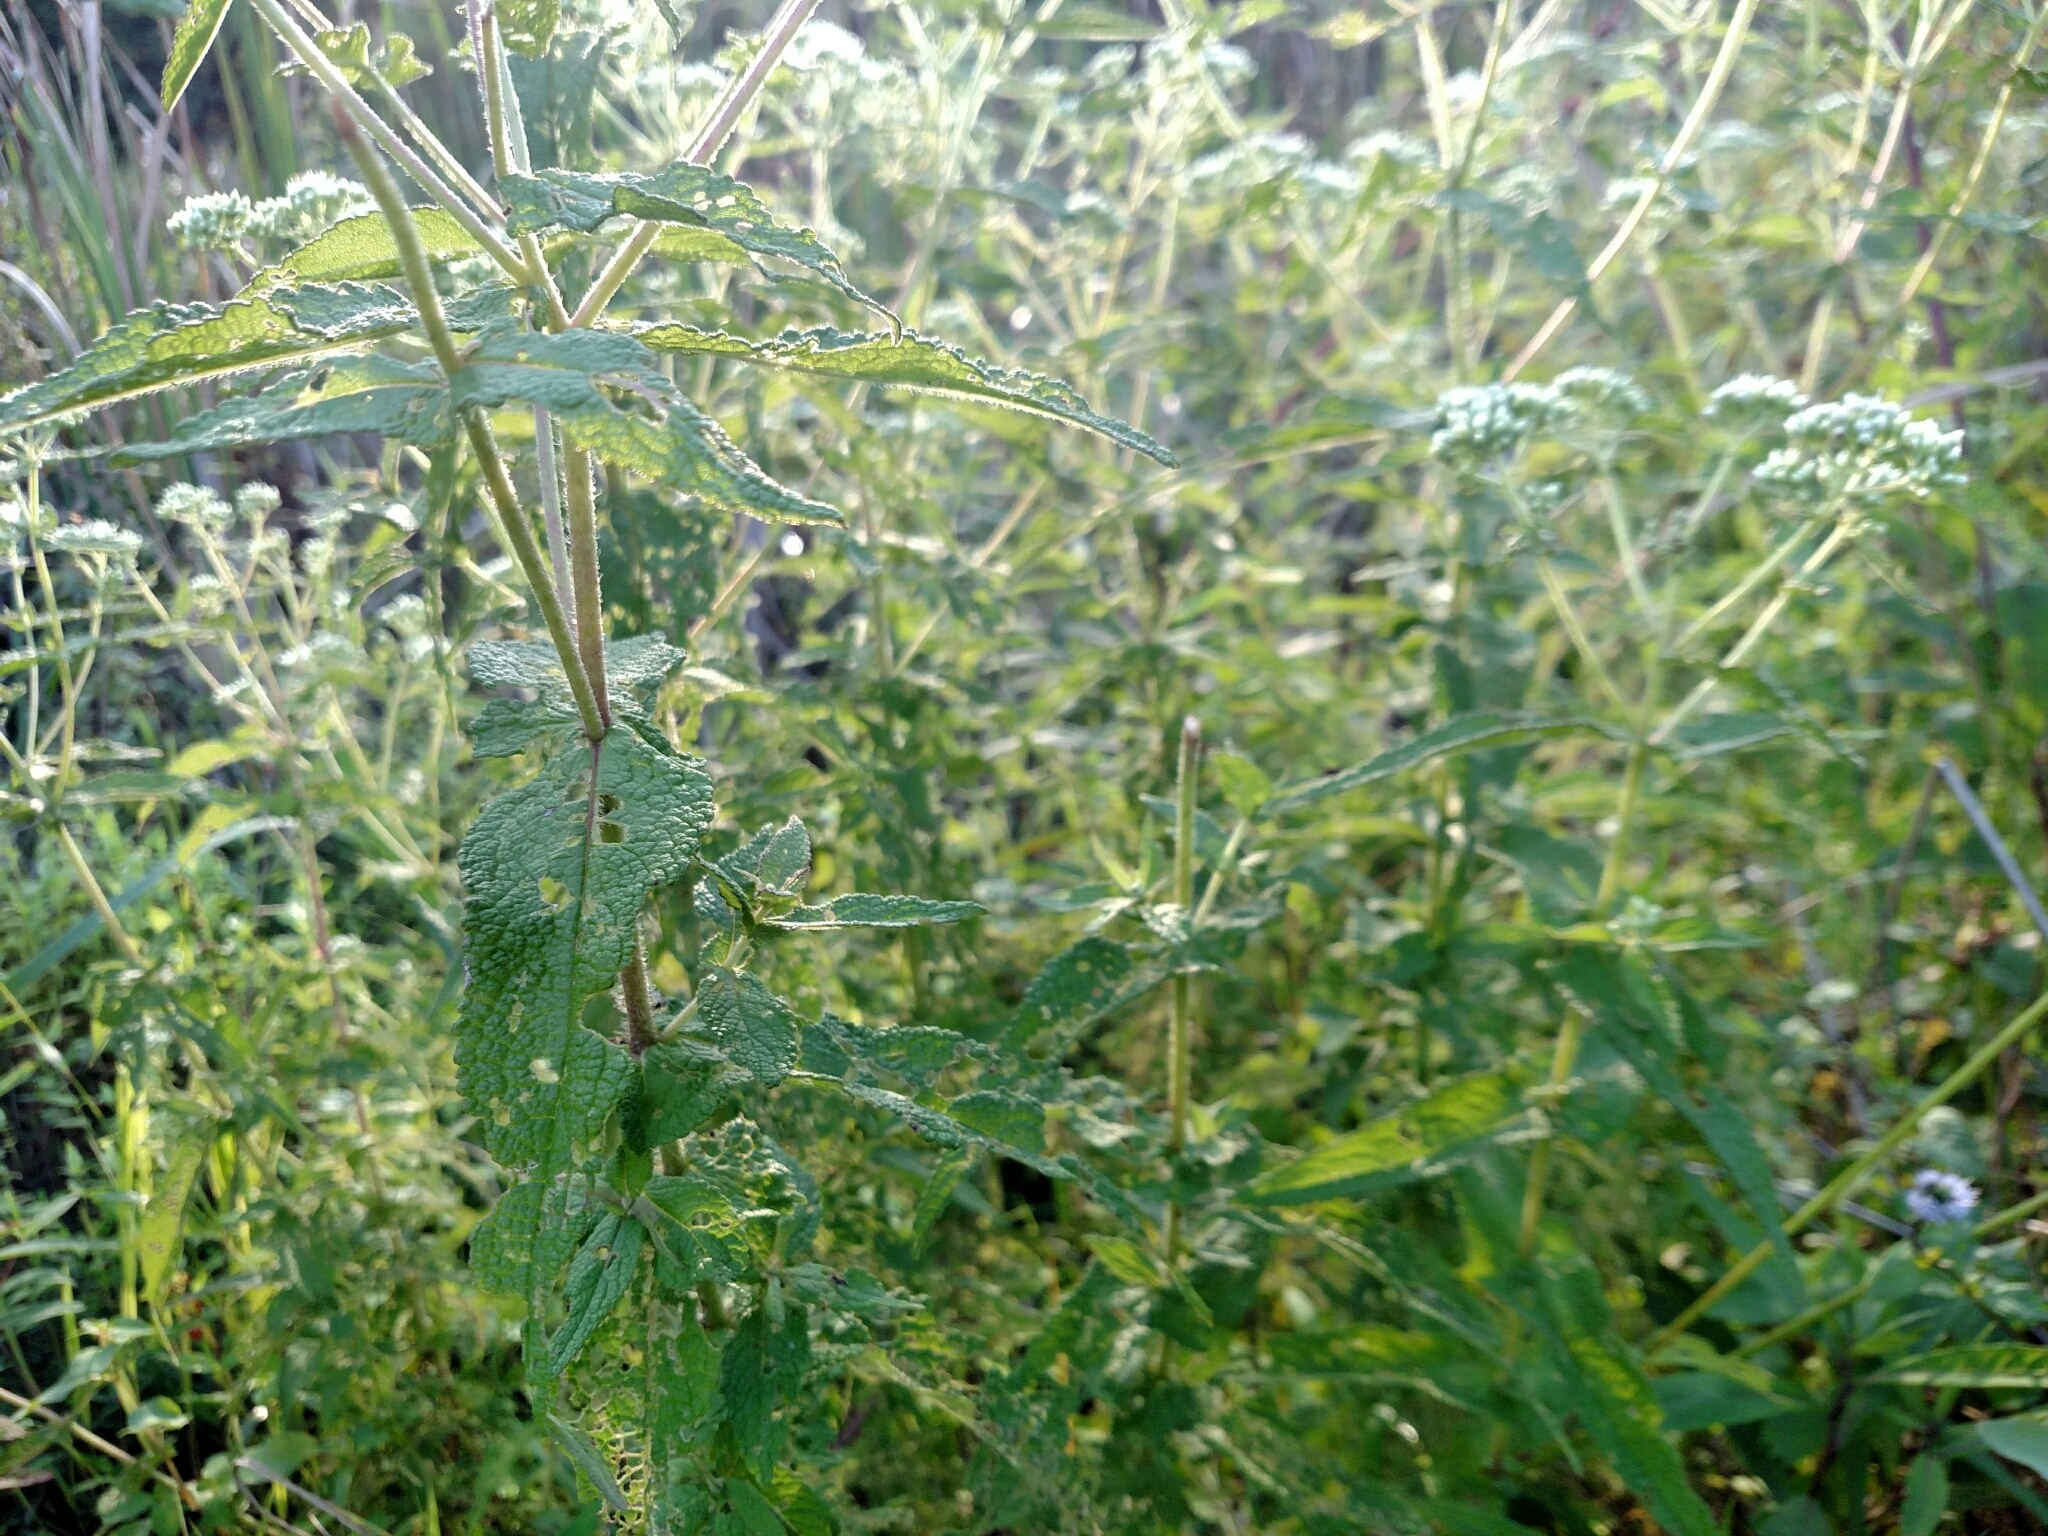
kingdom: Plantae
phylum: Tracheophyta
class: Magnoliopsida
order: Asterales
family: Asteraceae
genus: Eupatorium
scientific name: Eupatorium perfoliatum
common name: Boneset
